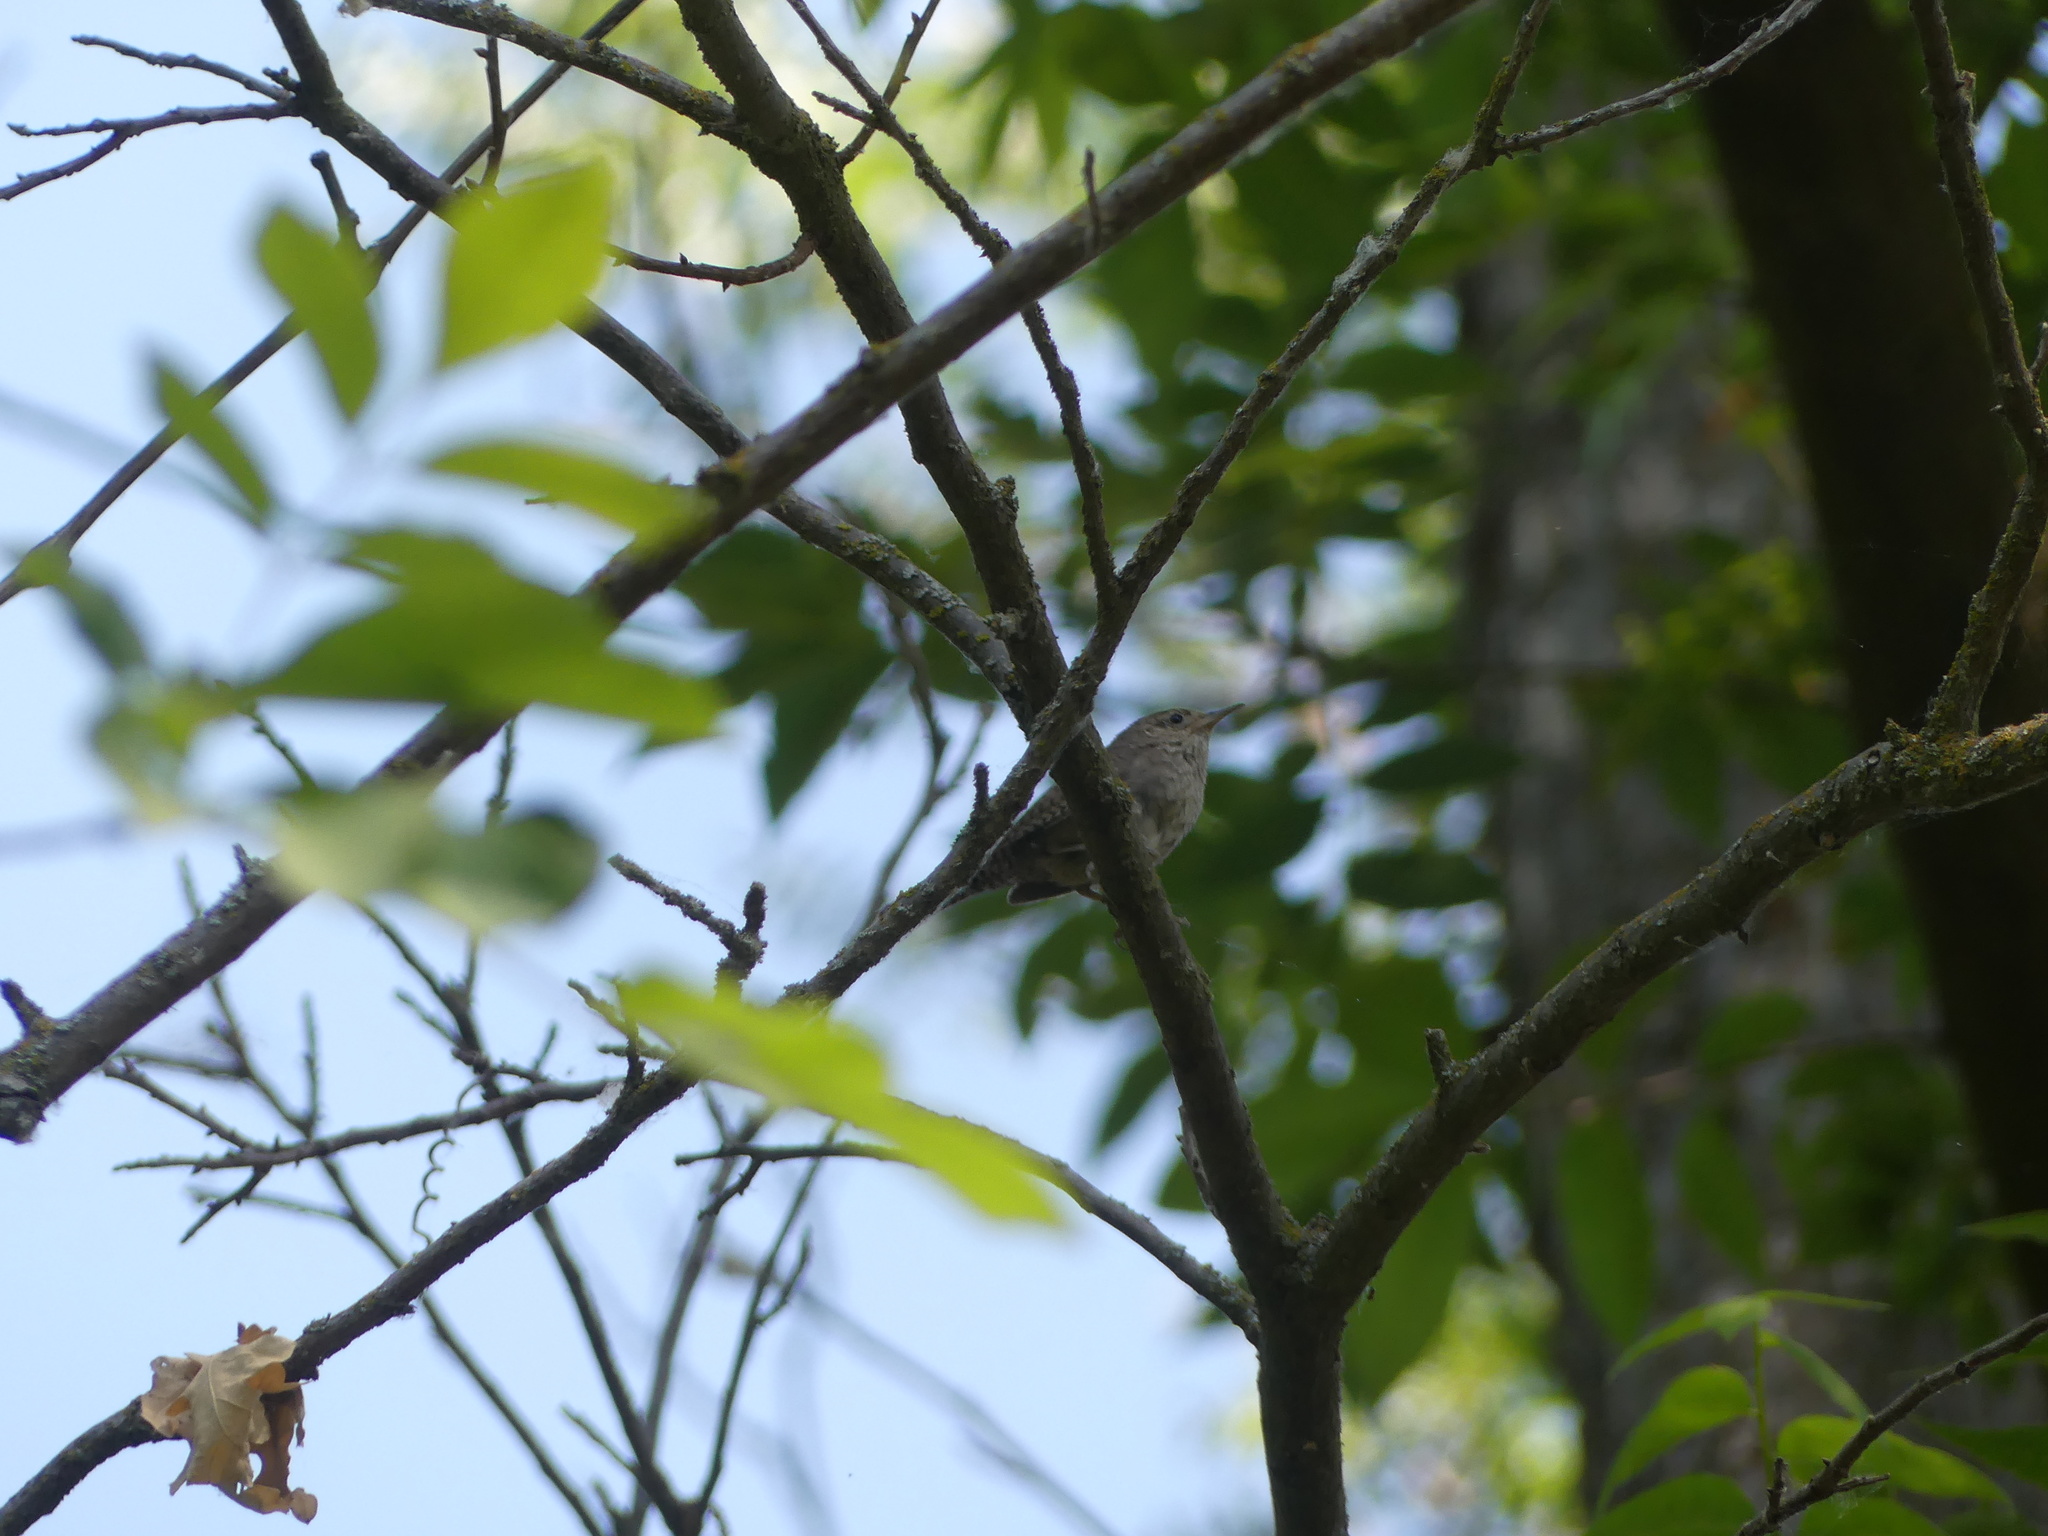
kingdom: Animalia
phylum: Chordata
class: Aves
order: Passeriformes
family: Troglodytidae
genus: Troglodytes
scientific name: Troglodytes aedon
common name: House wren
